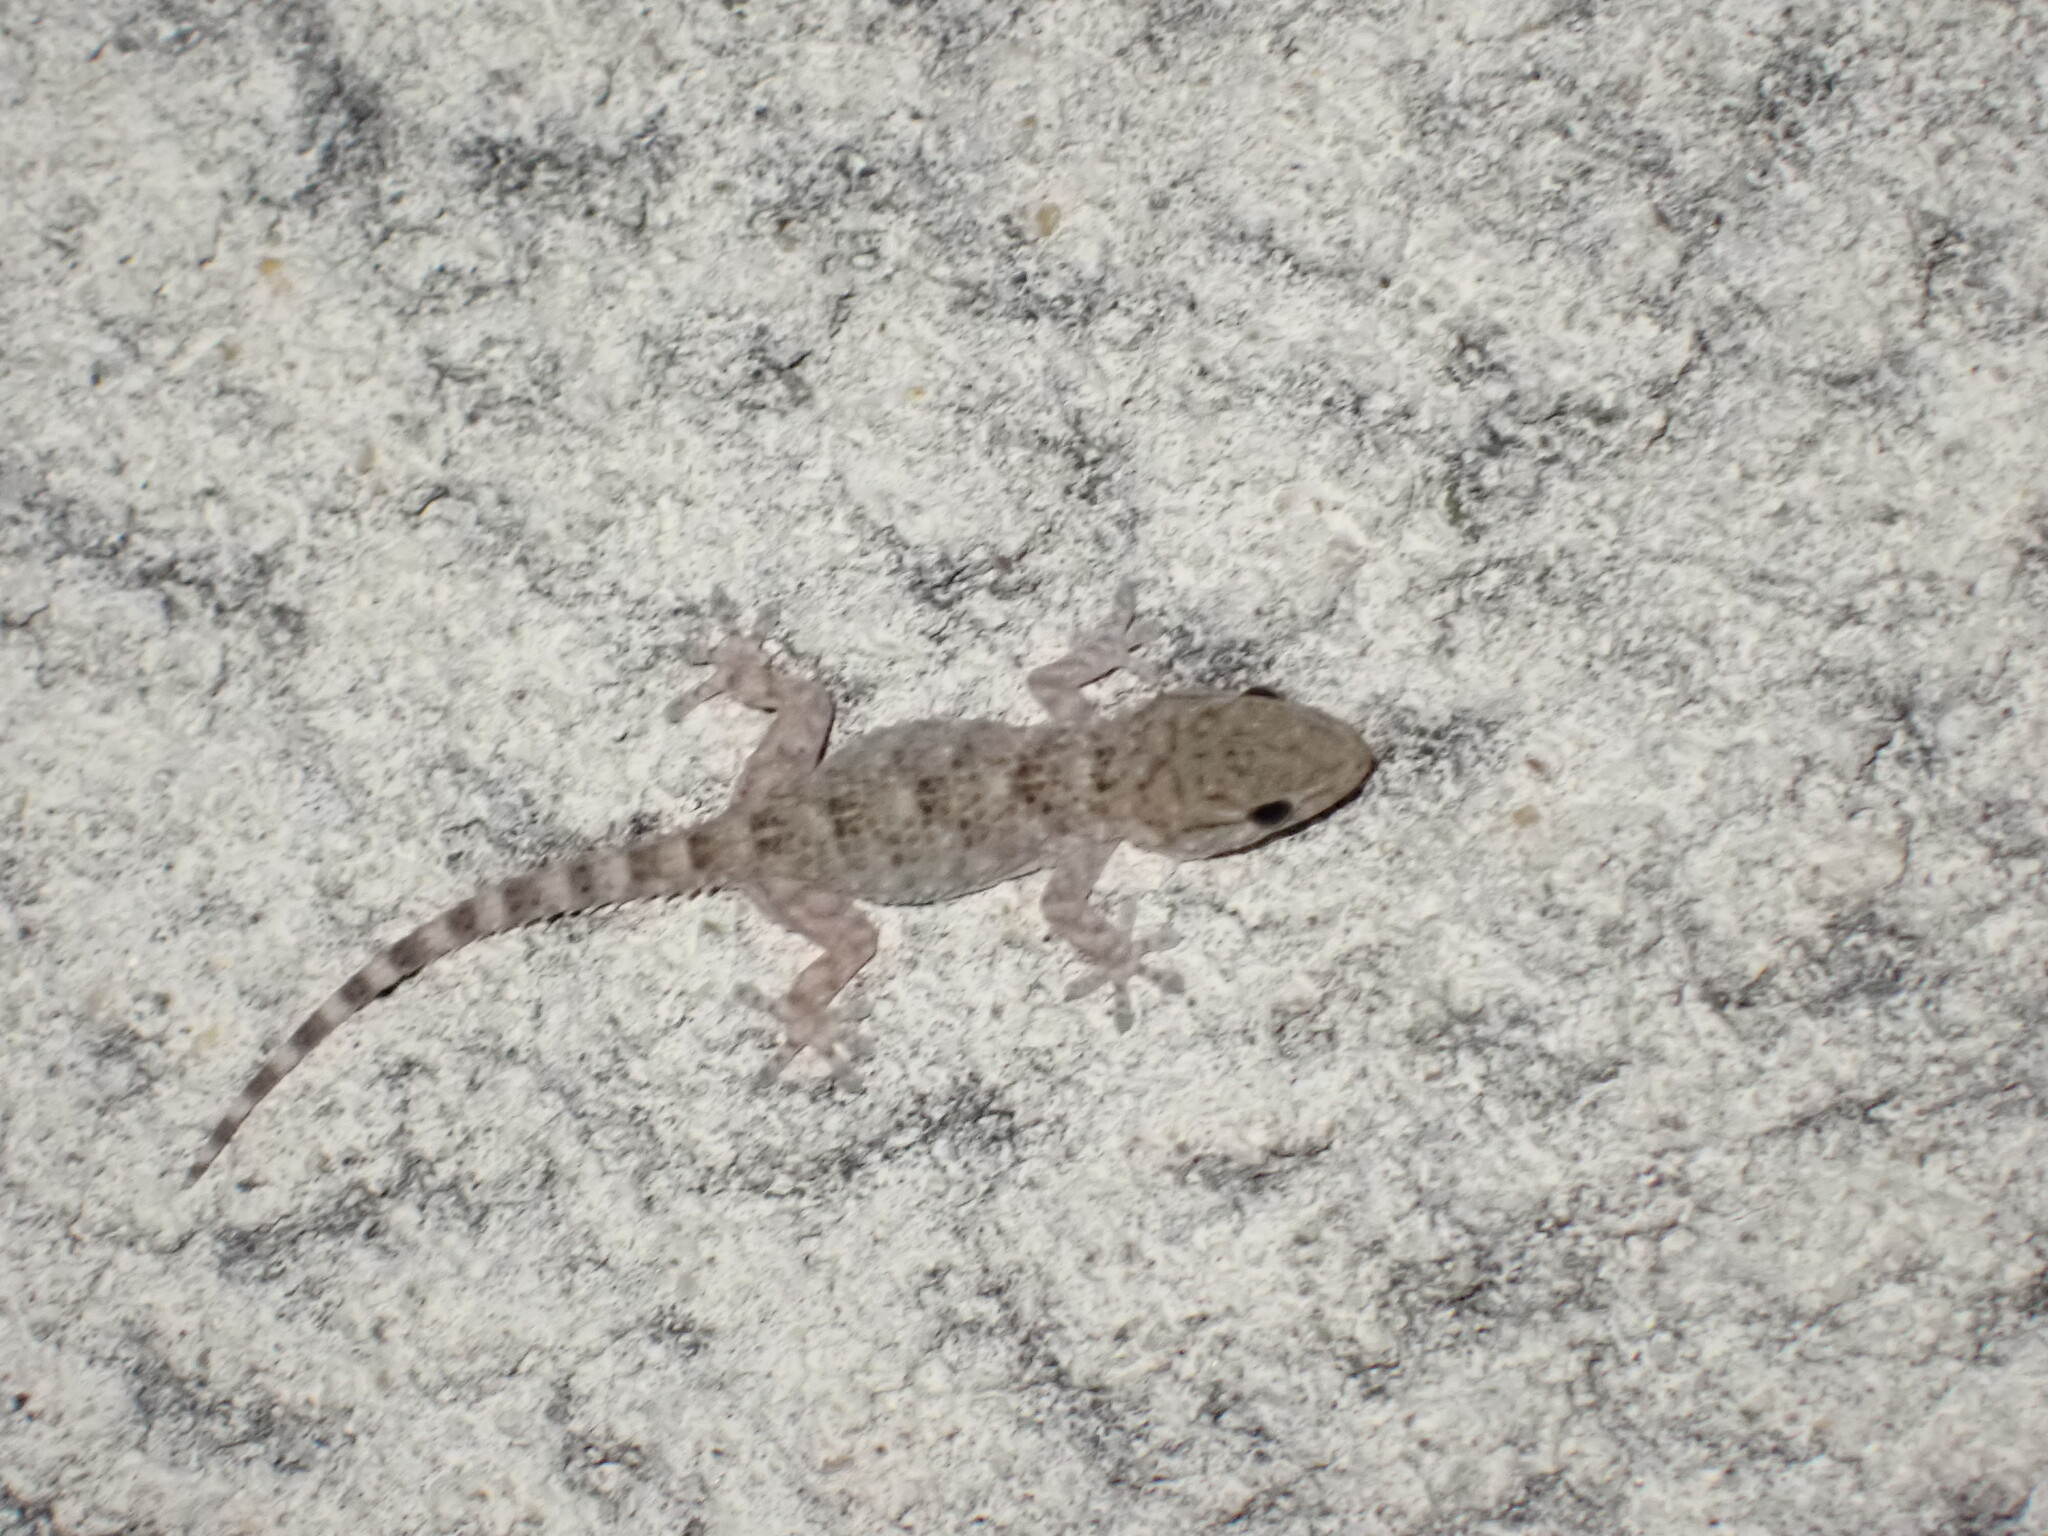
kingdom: Animalia
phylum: Chordata
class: Squamata
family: Phyllodactylidae
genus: Tarentola
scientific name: Tarentola mauritanica
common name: Moorish gecko
